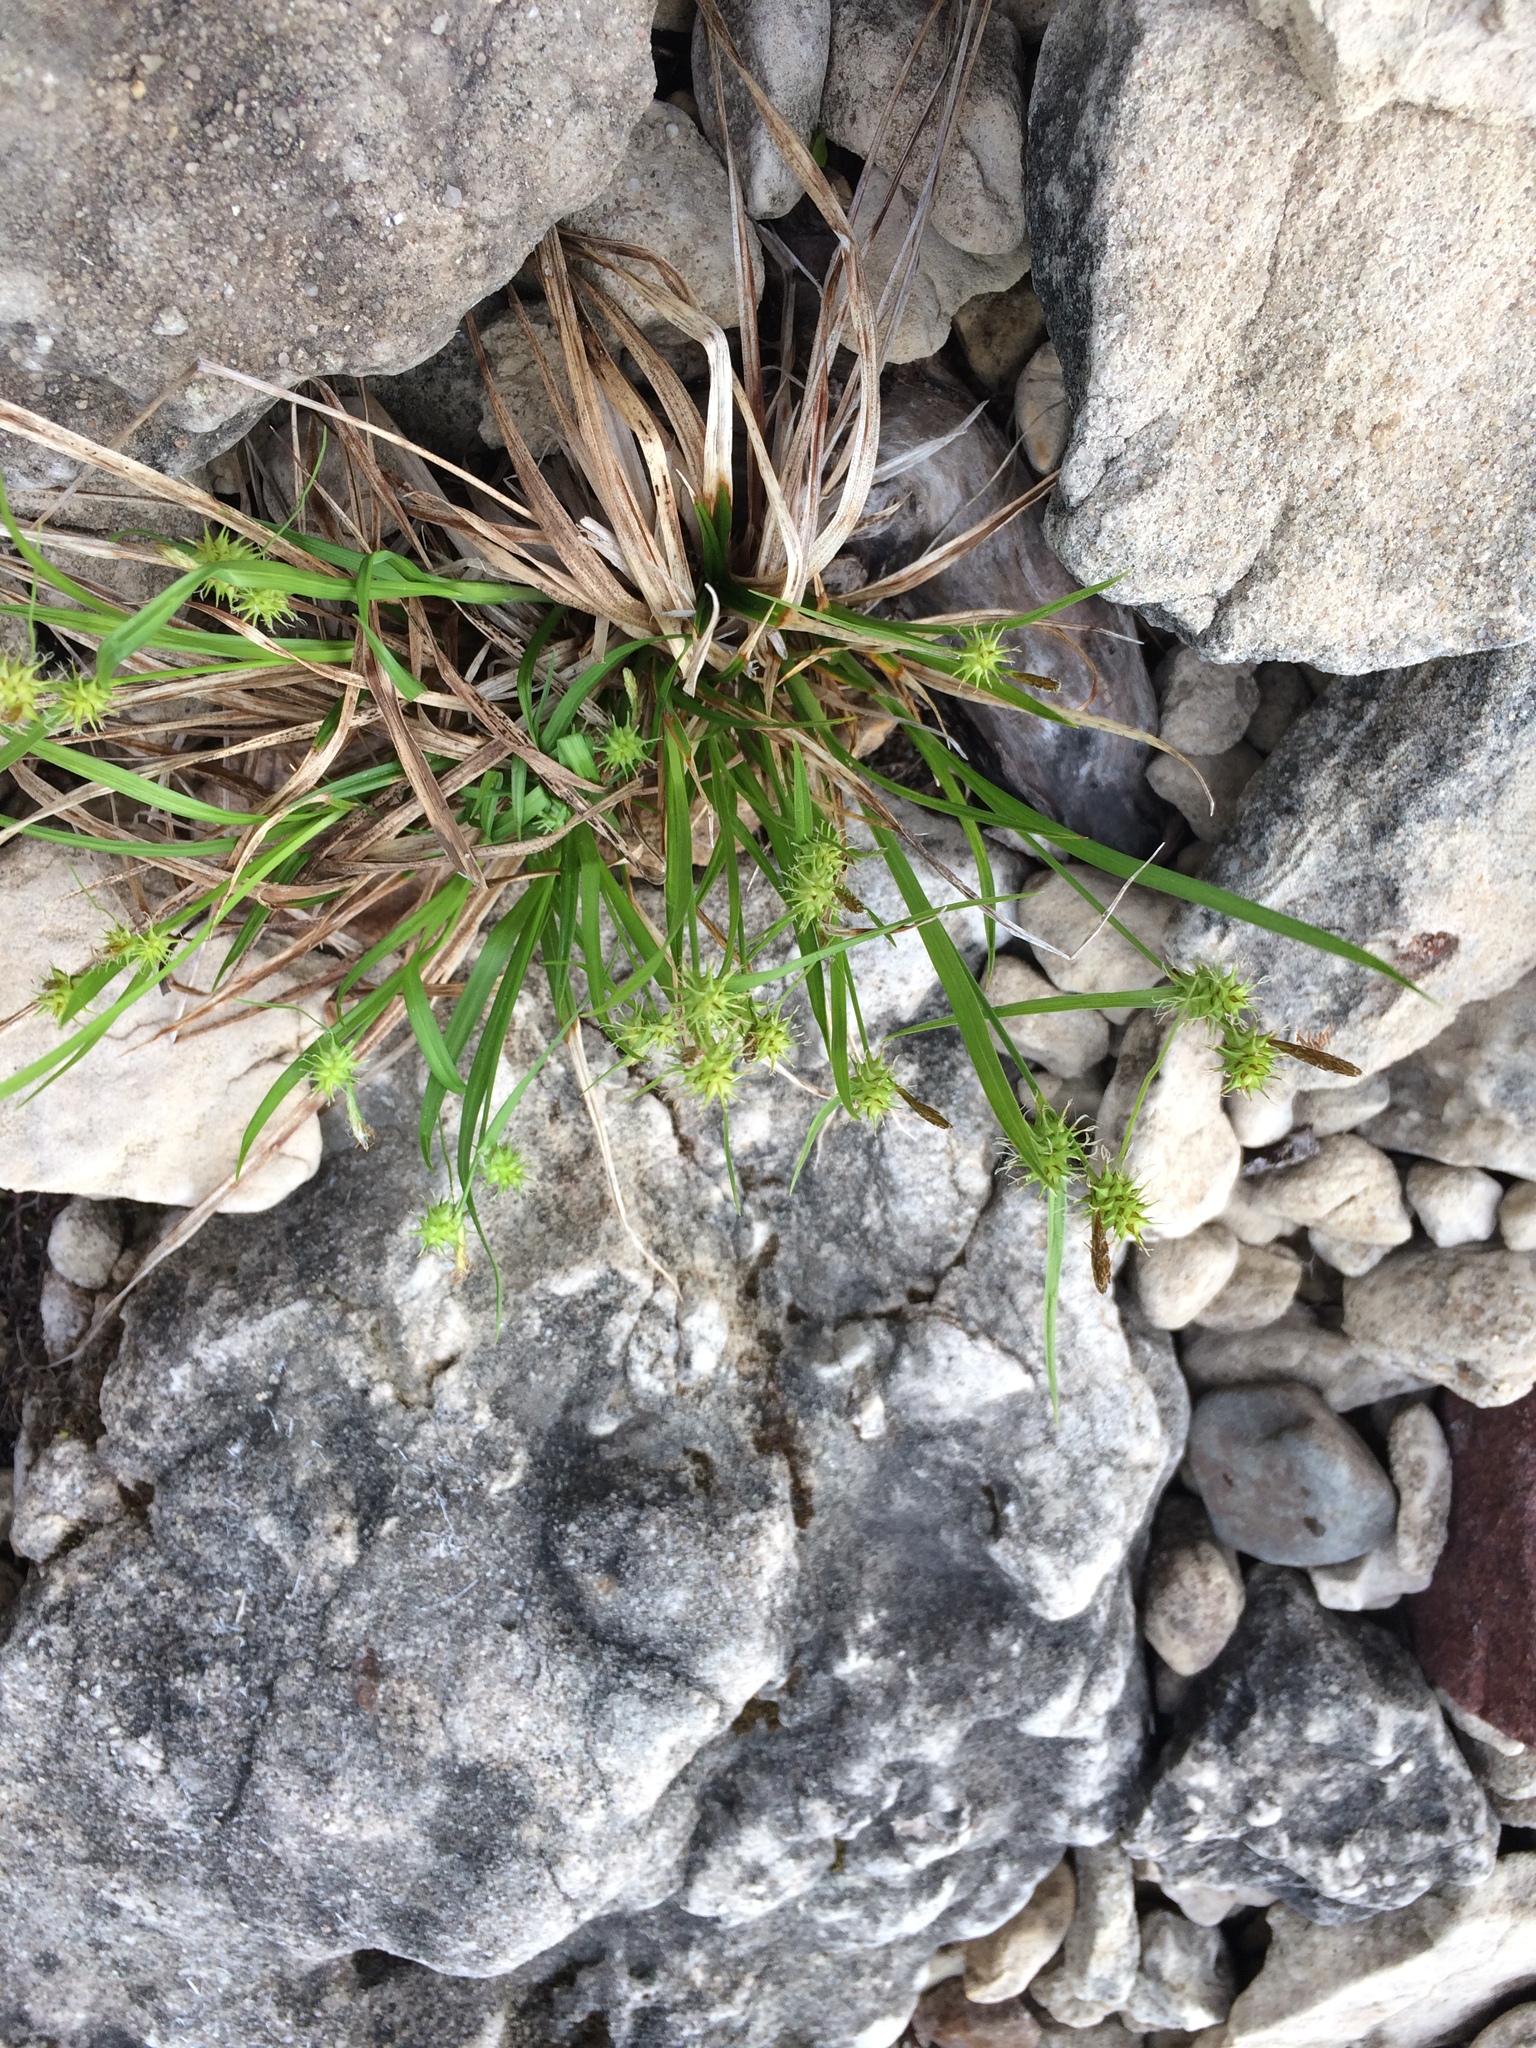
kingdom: Plantae
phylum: Tracheophyta
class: Liliopsida
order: Poales
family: Cyperaceae
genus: Carex
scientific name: Carex flava
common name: Large yellow-sedge
